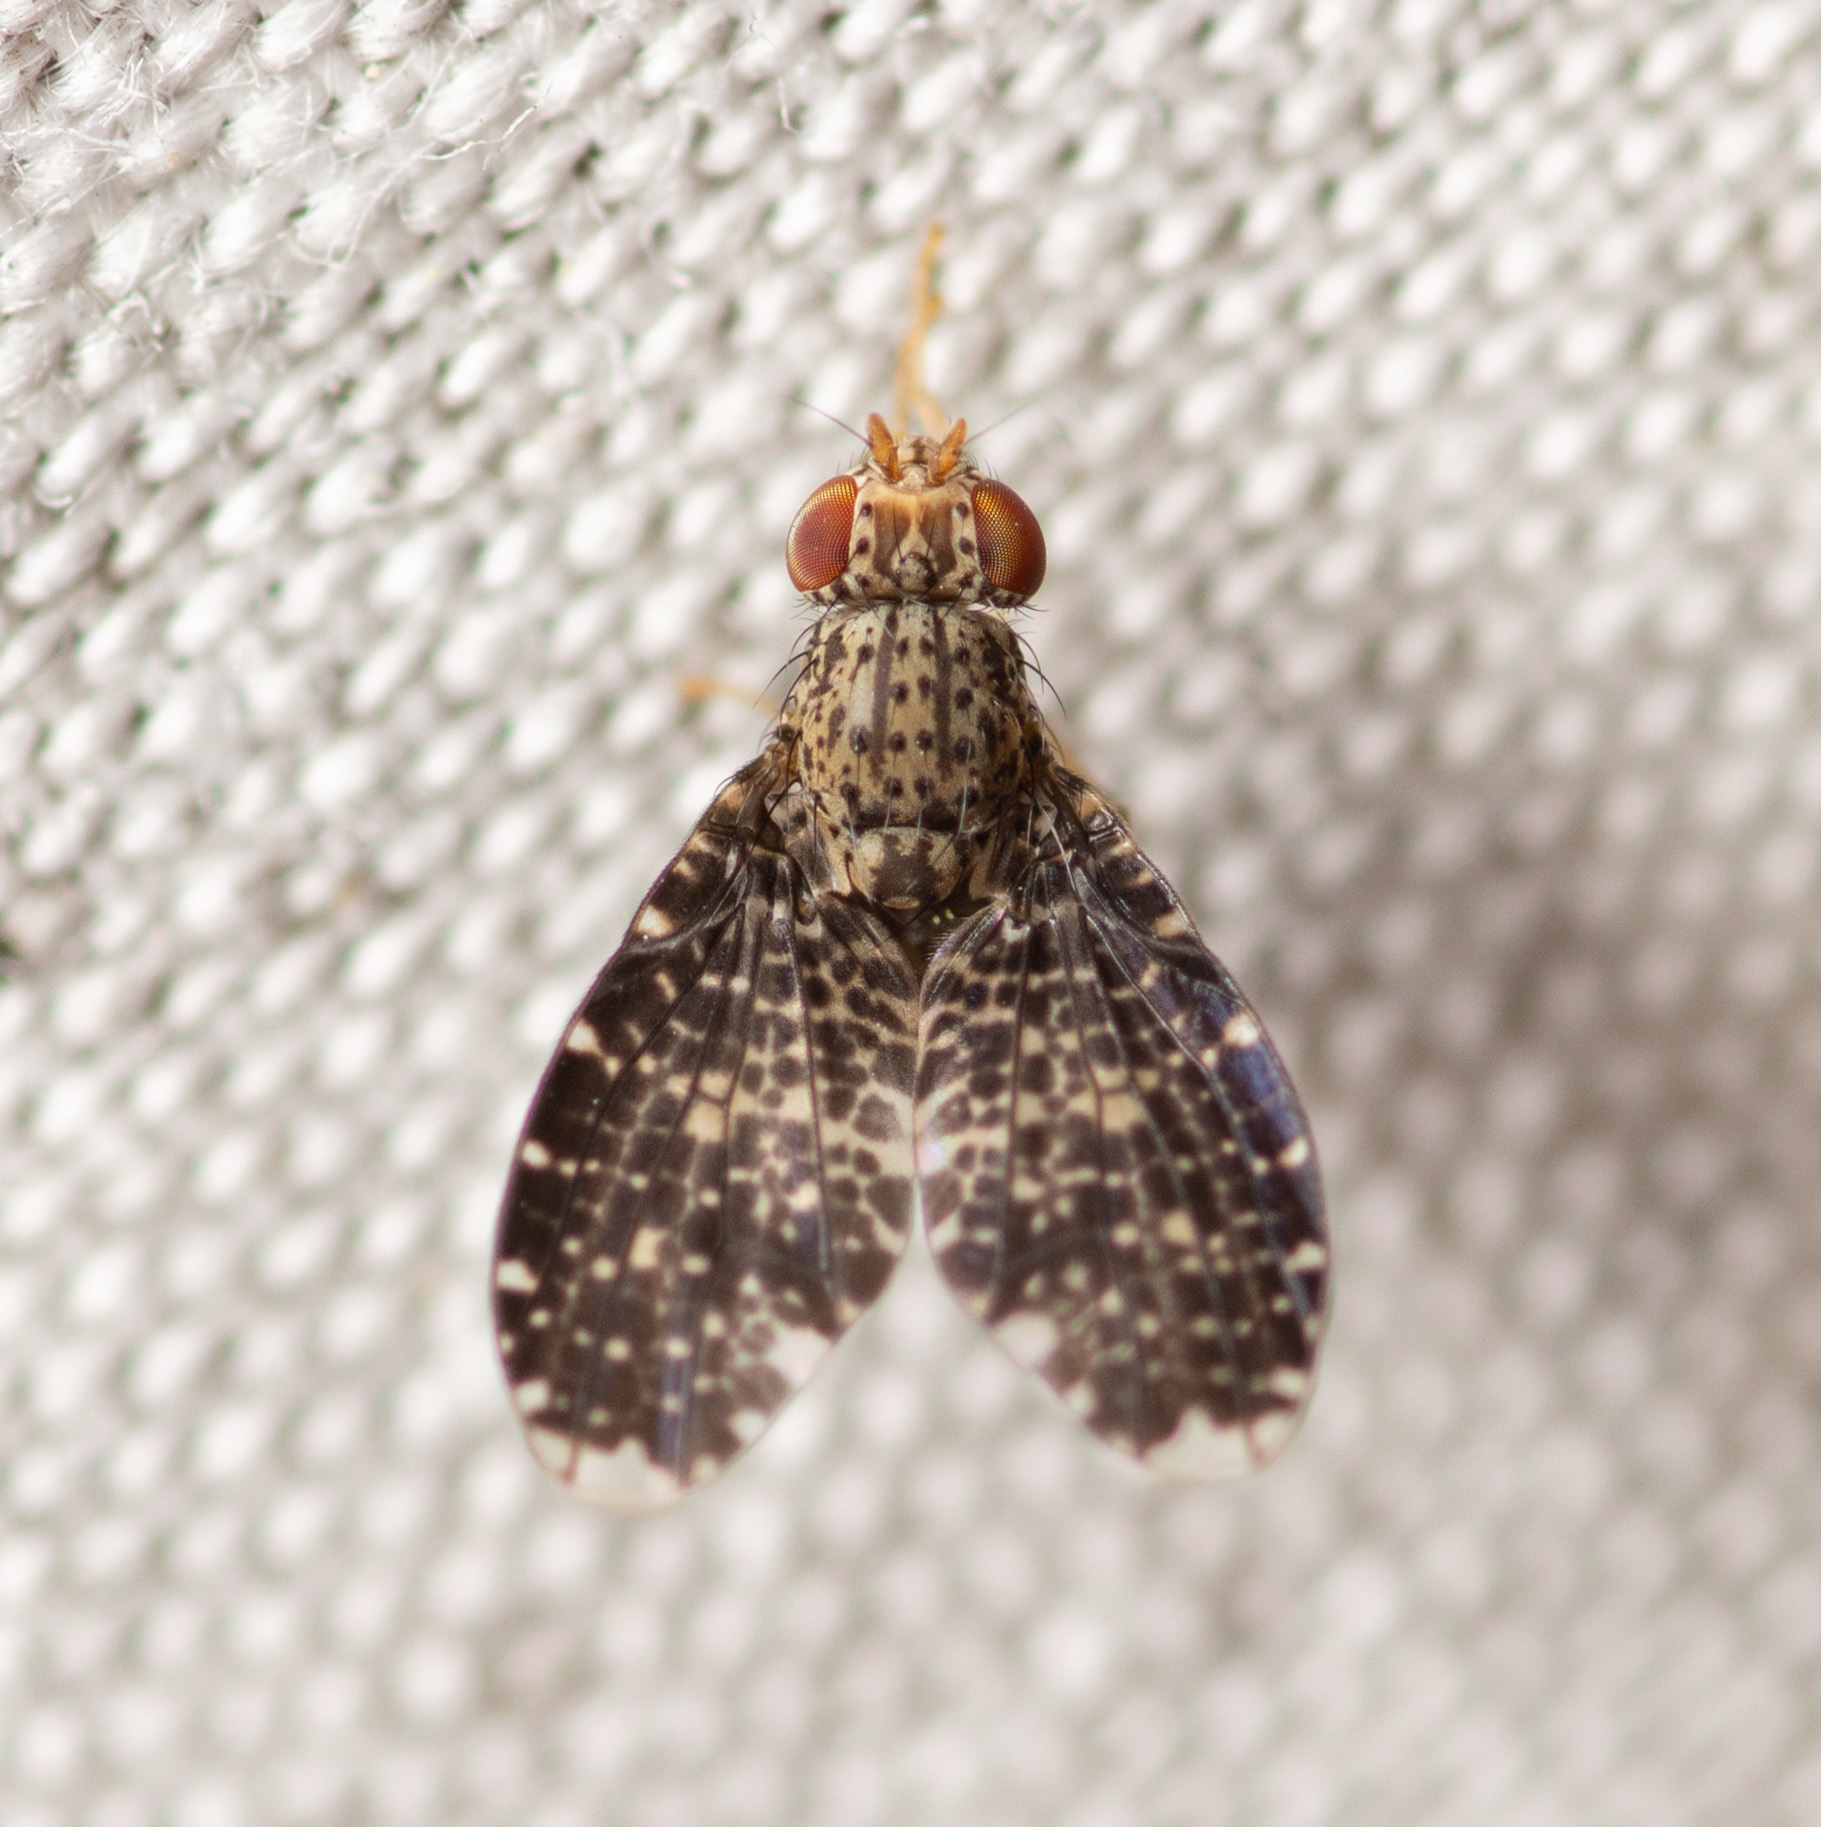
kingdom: Animalia
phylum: Arthropoda
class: Insecta
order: Diptera
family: Lauxaniidae
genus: Trypetisoma
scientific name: Trypetisoma sticticum
